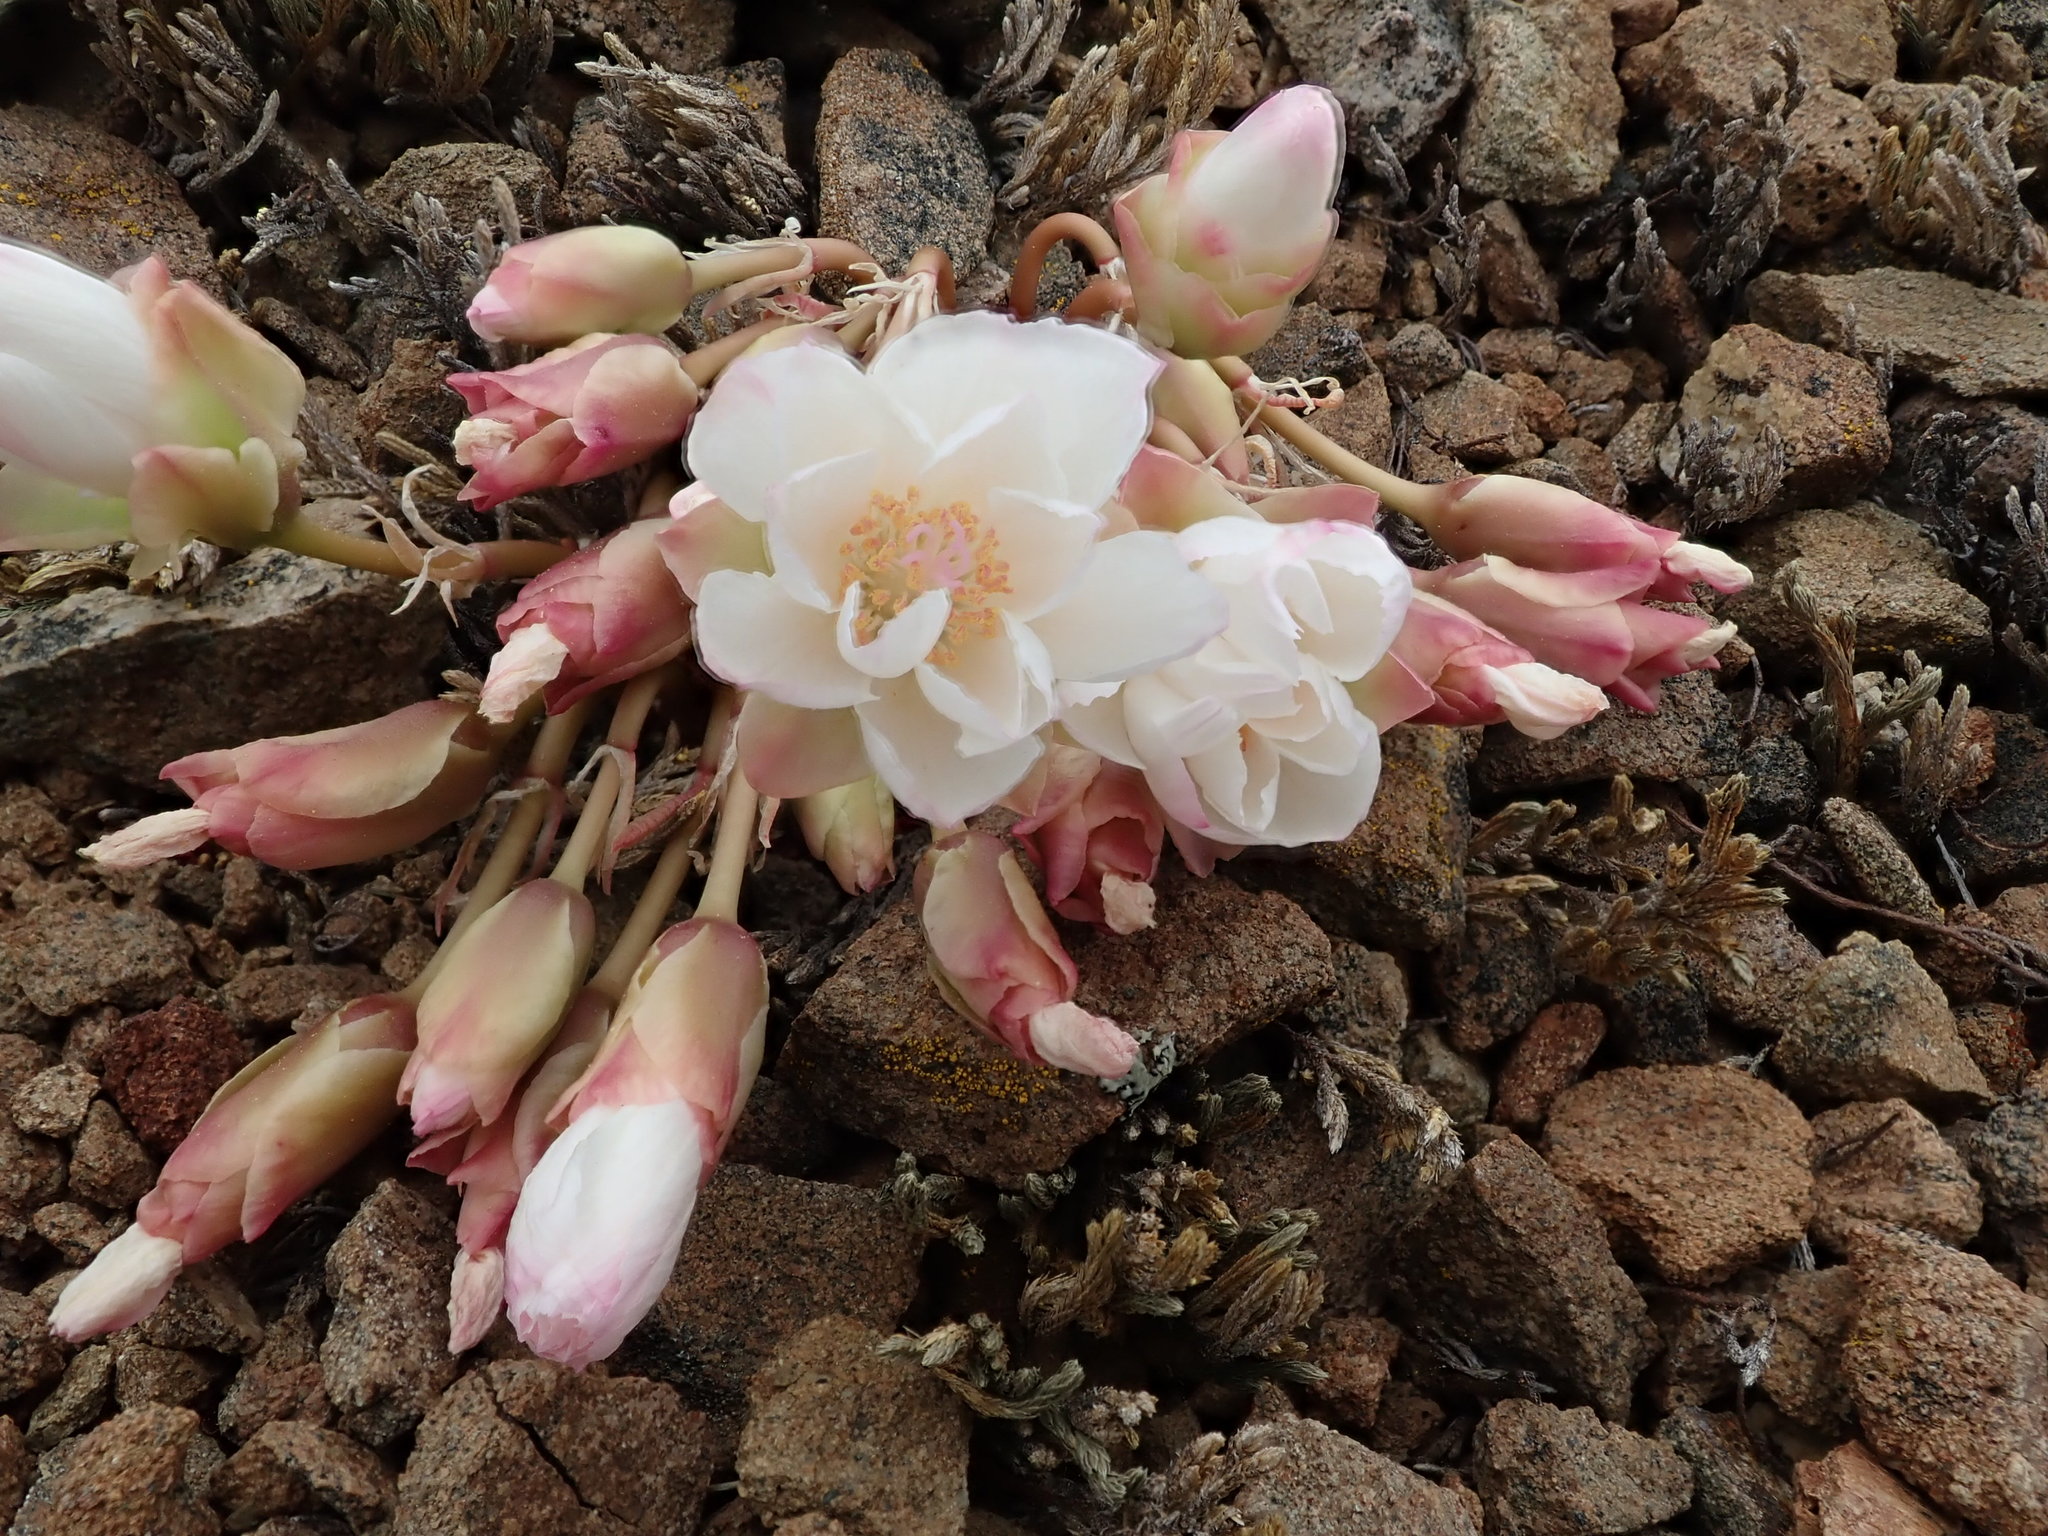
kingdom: Plantae
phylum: Tracheophyta
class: Magnoliopsida
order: Caryophyllales
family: Montiaceae
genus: Lewisia
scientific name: Lewisia rediviva
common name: Bitter-root
